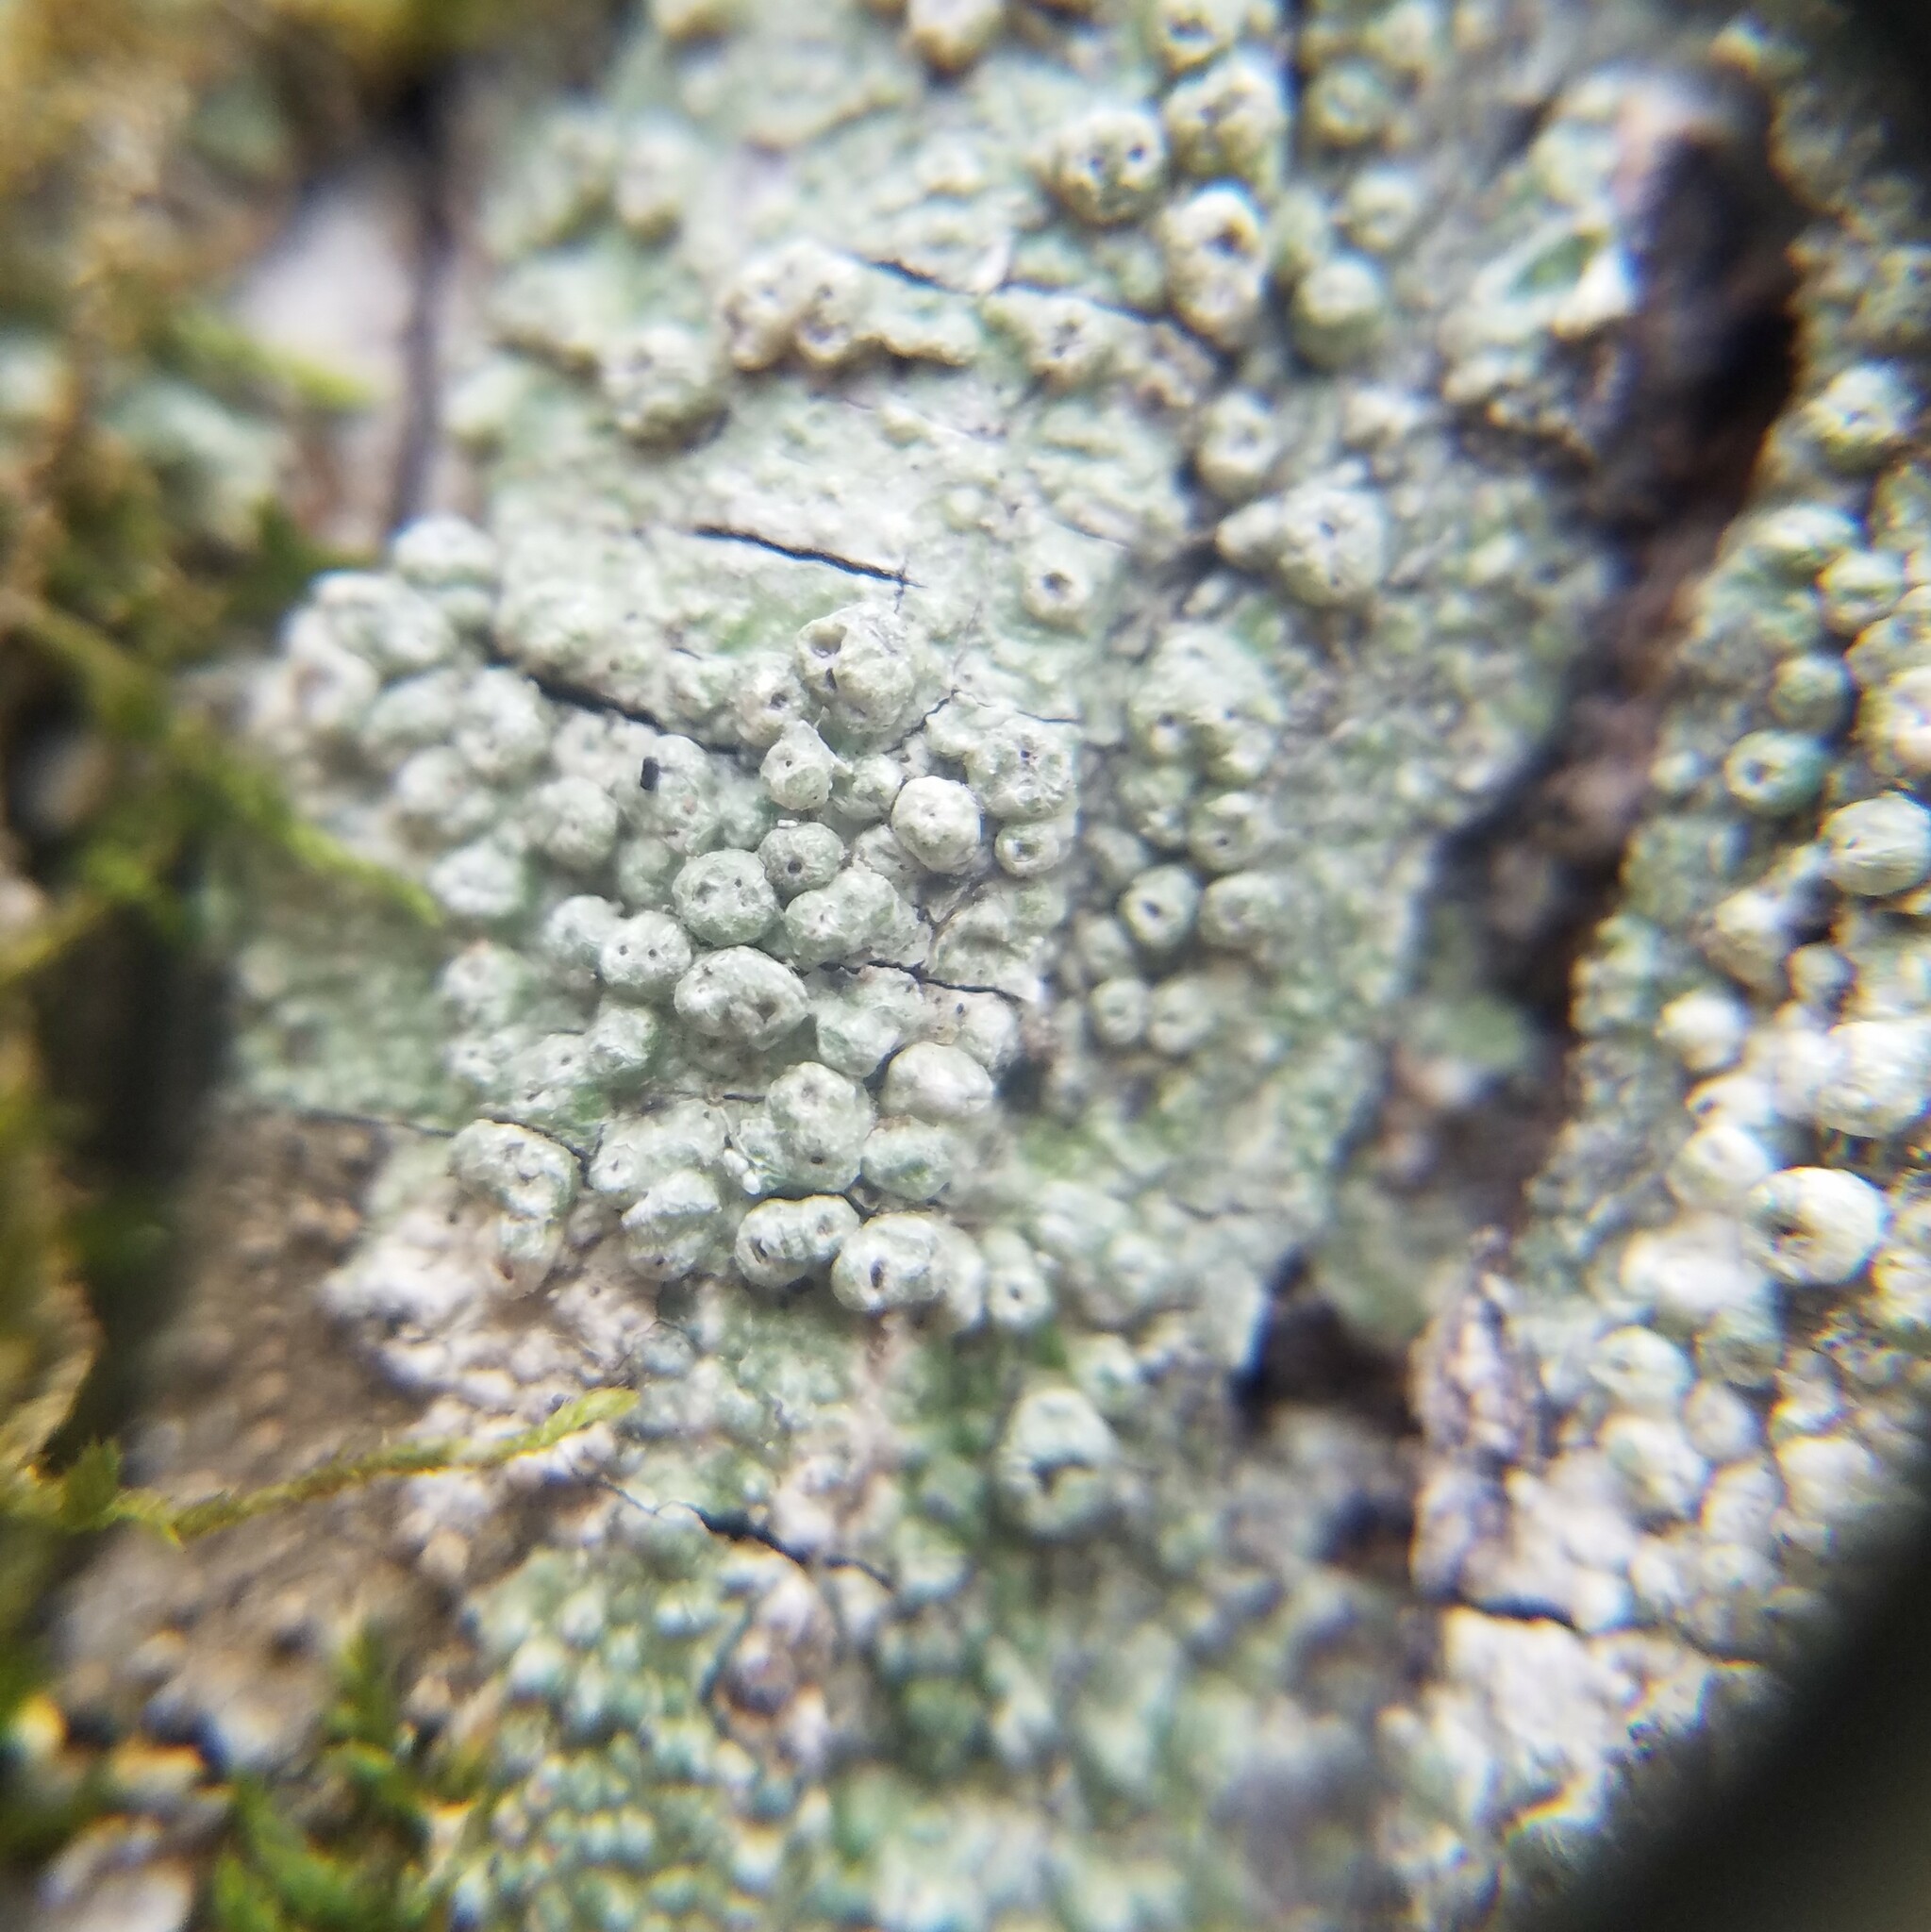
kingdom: Fungi
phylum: Ascomycota
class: Lecanoromycetes
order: Pertusariales
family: Pertusariaceae
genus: Pertusaria
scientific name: Pertusaria sinusmexicani
